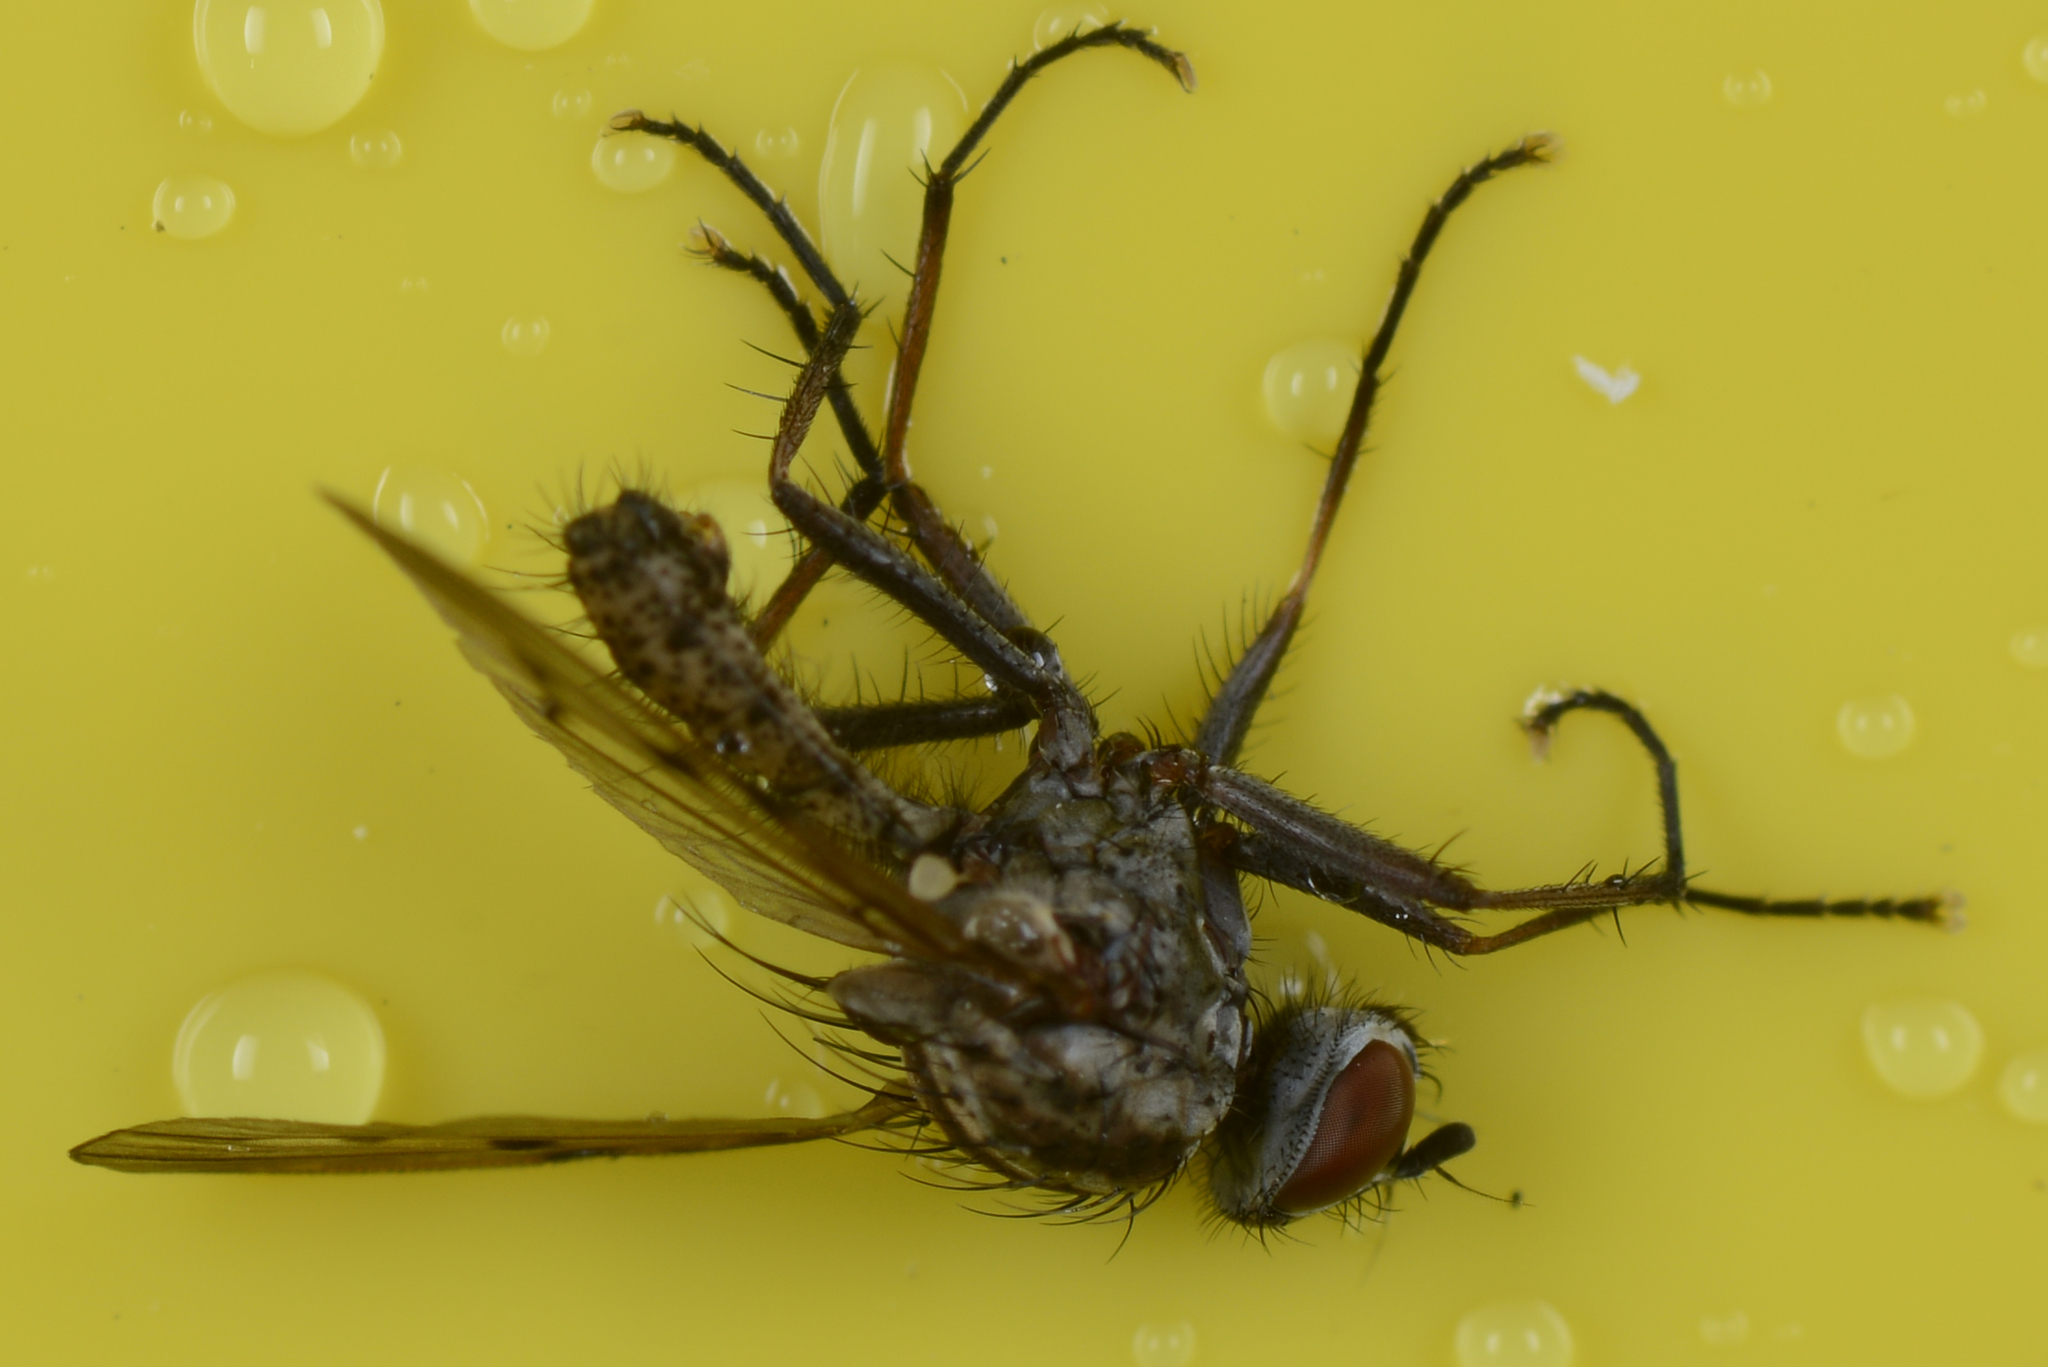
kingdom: Animalia
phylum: Arthropoda
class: Insecta
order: Diptera
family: Anthomyiidae
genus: Anthomyia
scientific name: Anthomyia punctipennis
